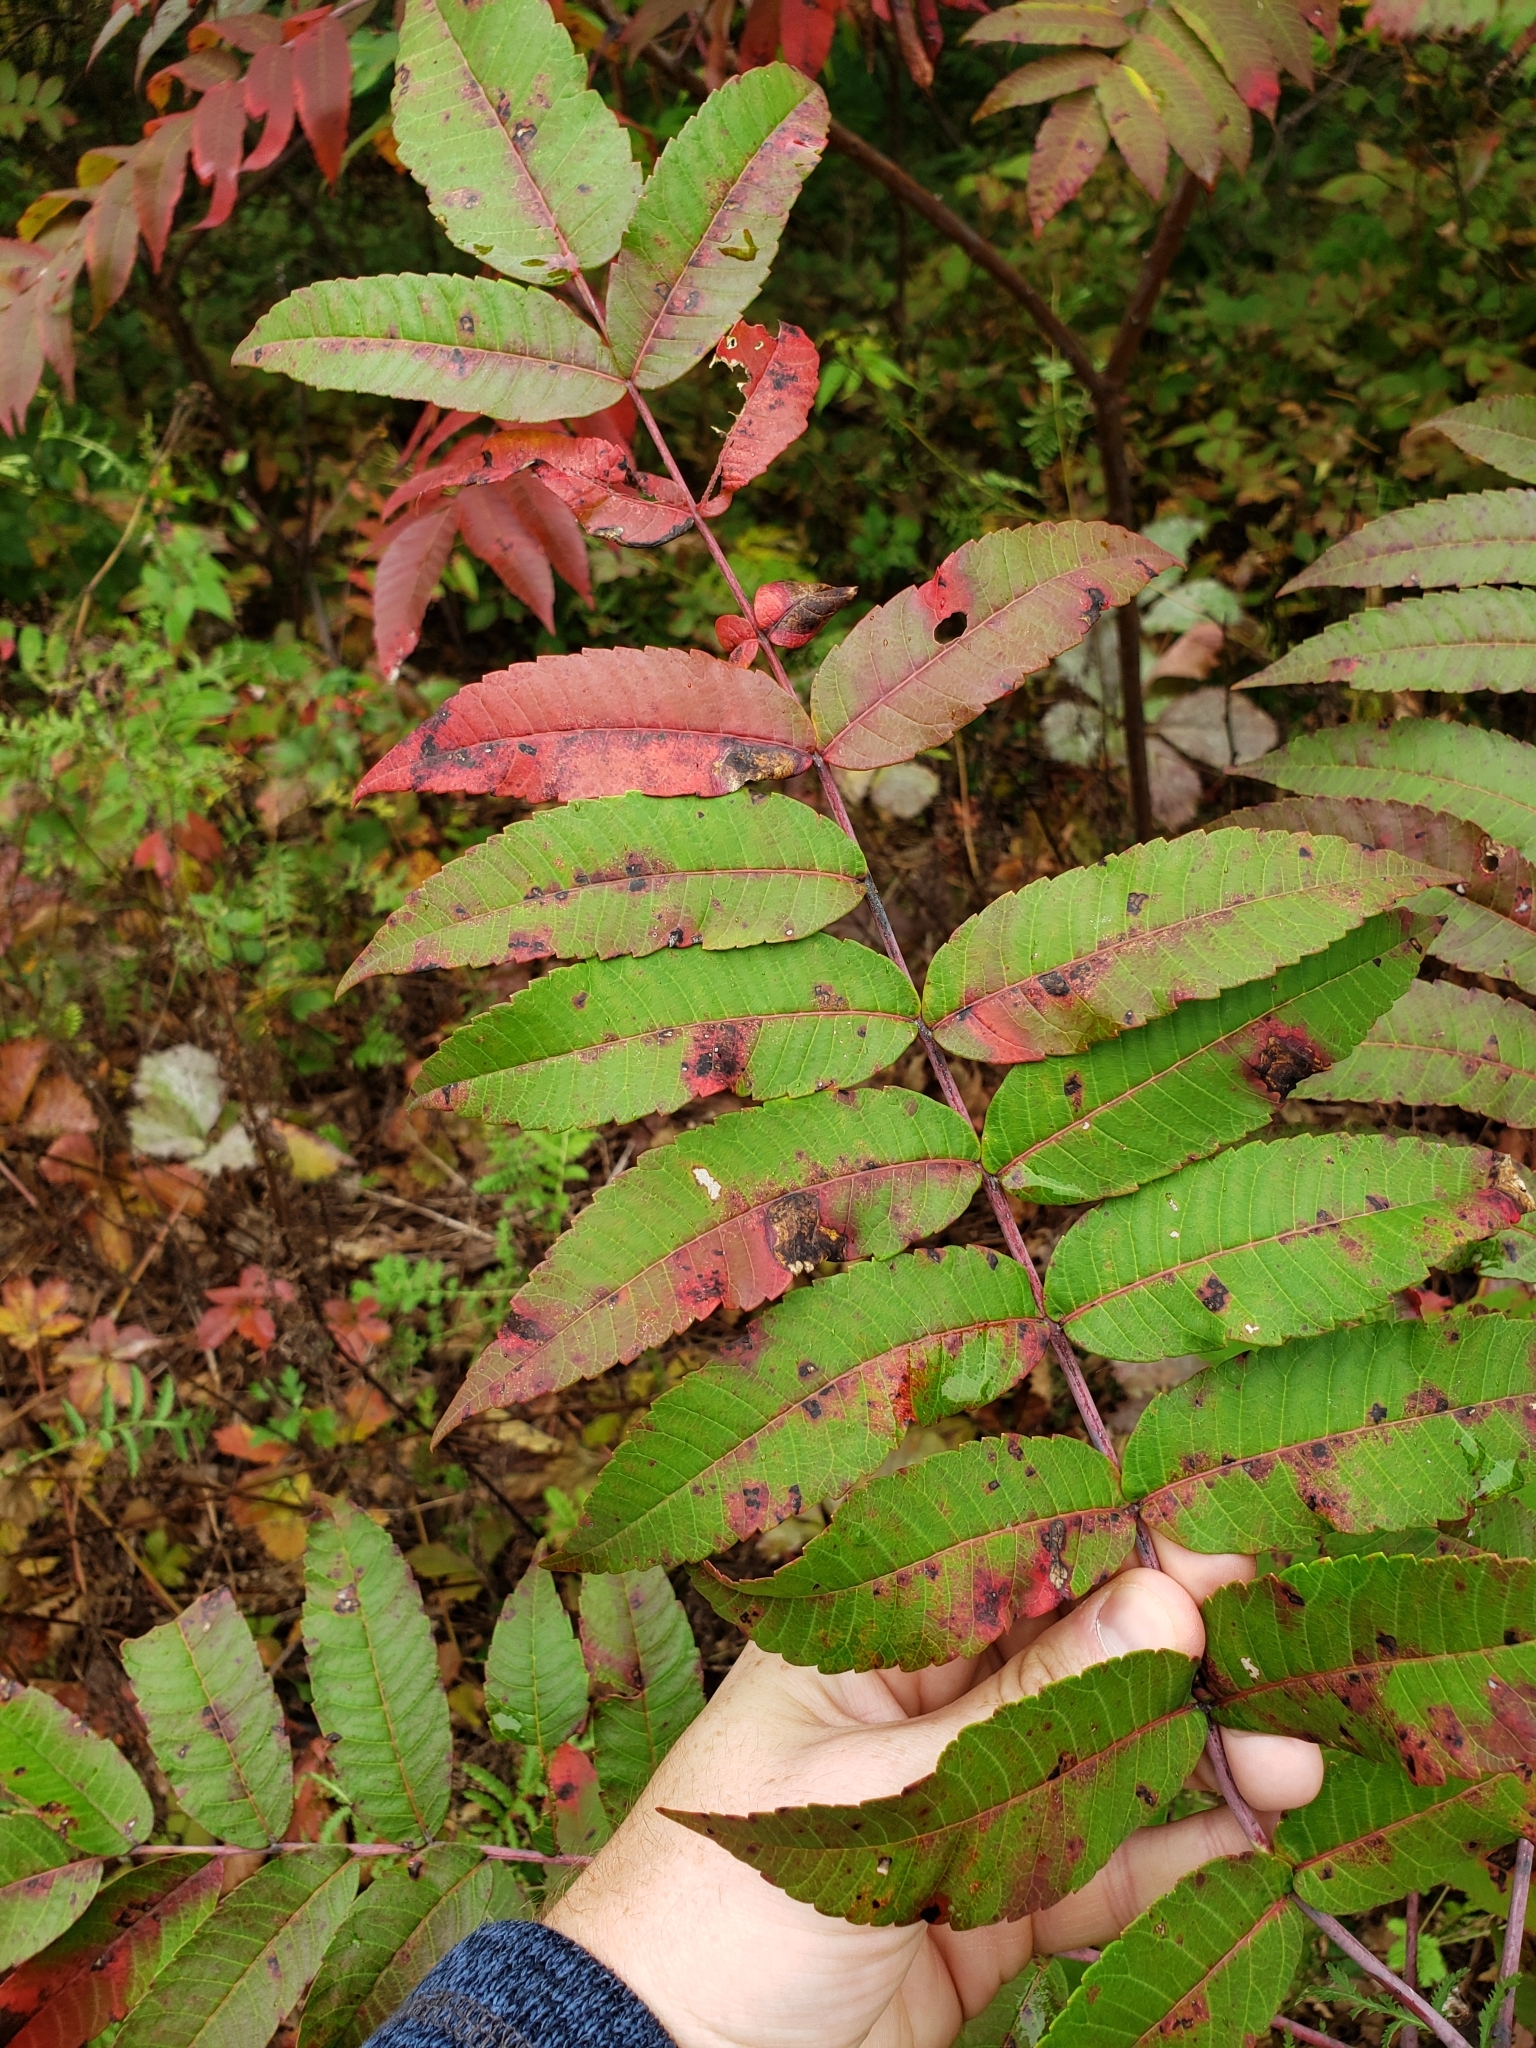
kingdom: Plantae
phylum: Tracheophyta
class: Magnoliopsida
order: Sapindales
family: Anacardiaceae
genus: Rhus
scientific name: Rhus glabra
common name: Scarlet sumac
